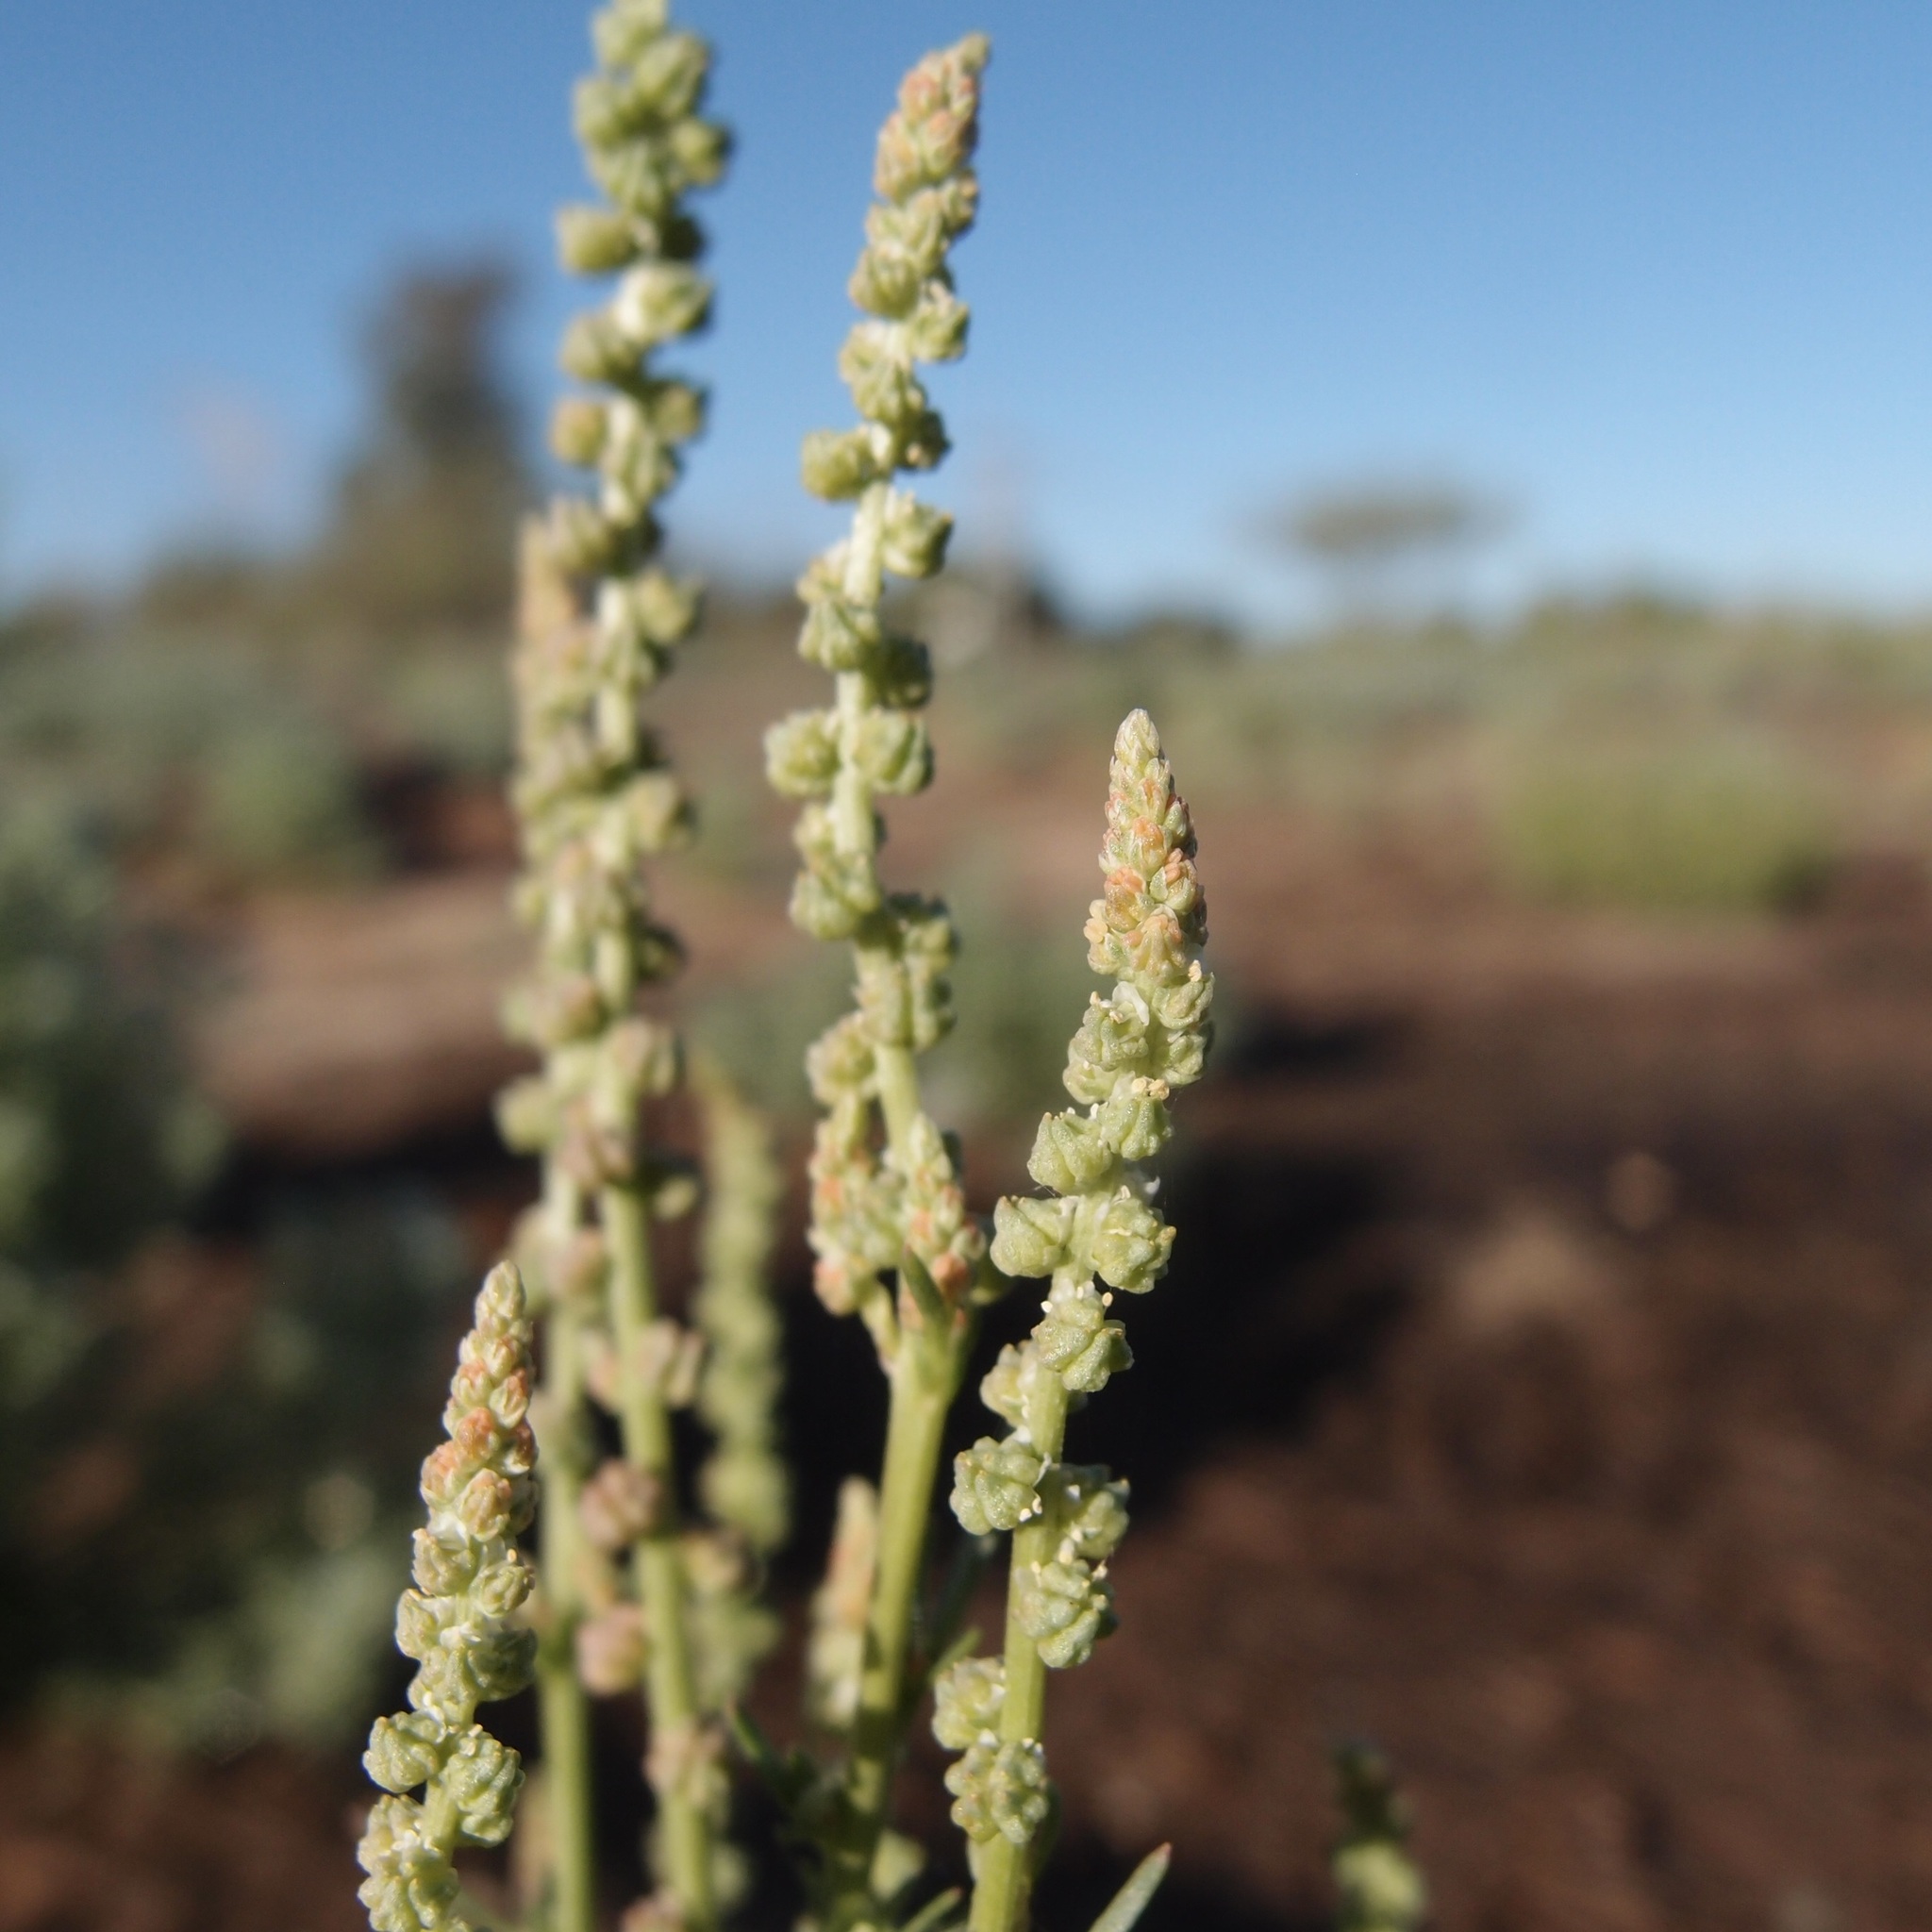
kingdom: Plantae
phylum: Tracheophyta
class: Magnoliopsida
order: Brassicales
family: Resedaceae
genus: Oligomeris
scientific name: Oligomeris linifolia
